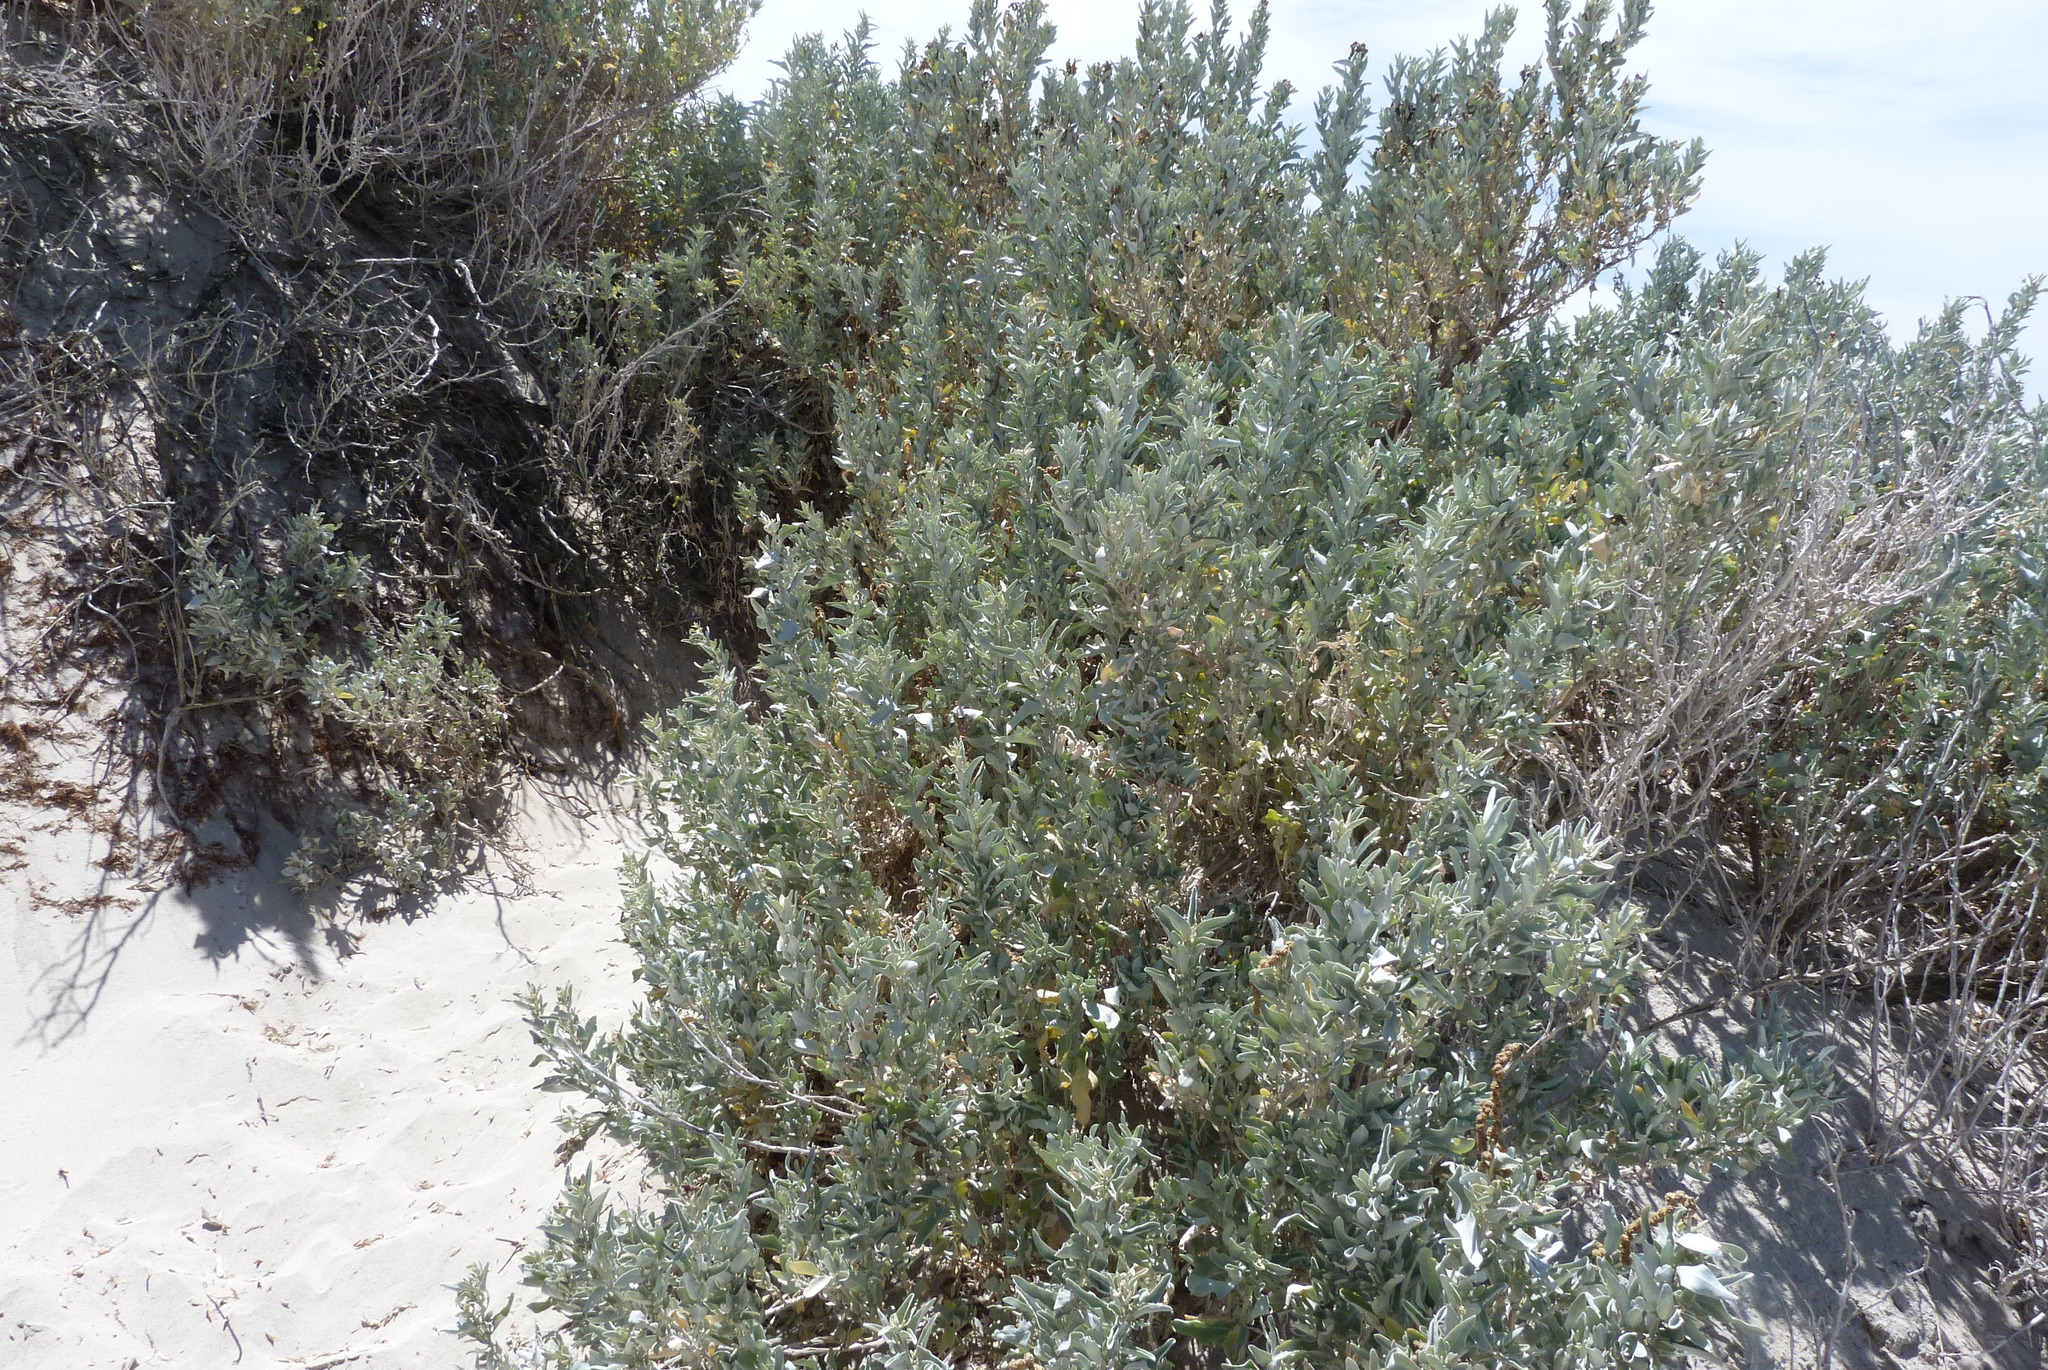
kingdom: Plantae
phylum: Tracheophyta
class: Magnoliopsida
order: Caryophyllales
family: Amaranthaceae
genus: Atriplex
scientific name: Atriplex cinerea
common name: Grey saltbush
